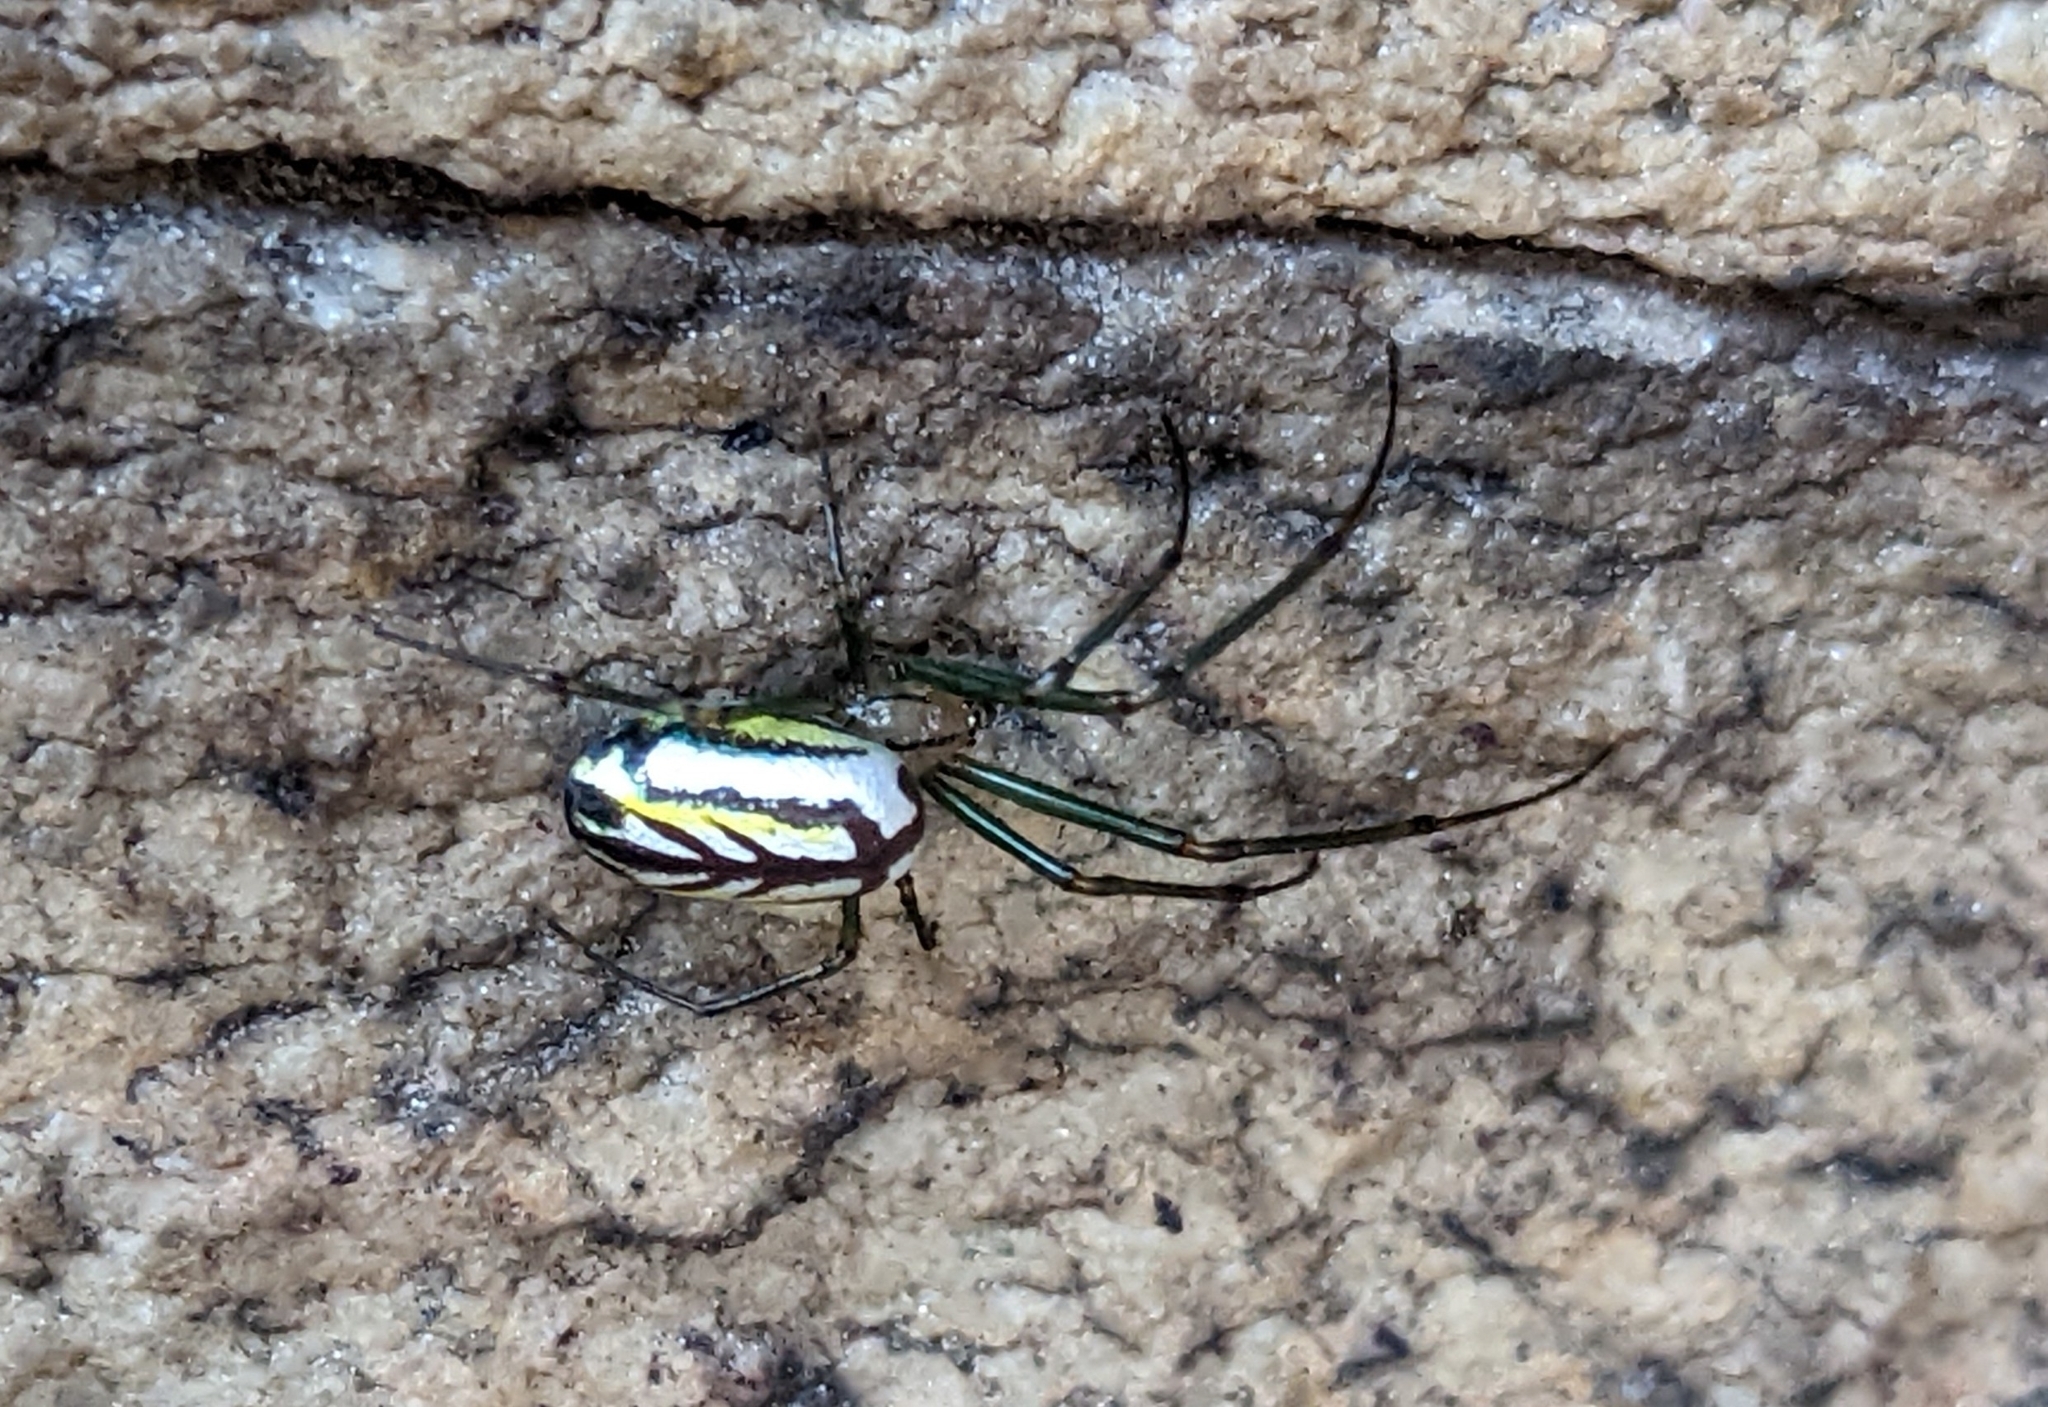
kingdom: Animalia
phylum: Arthropoda
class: Arachnida
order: Araneae
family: Tetragnathidae
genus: Leucauge
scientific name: Leucauge venusta
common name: Longjawed orb weavers
